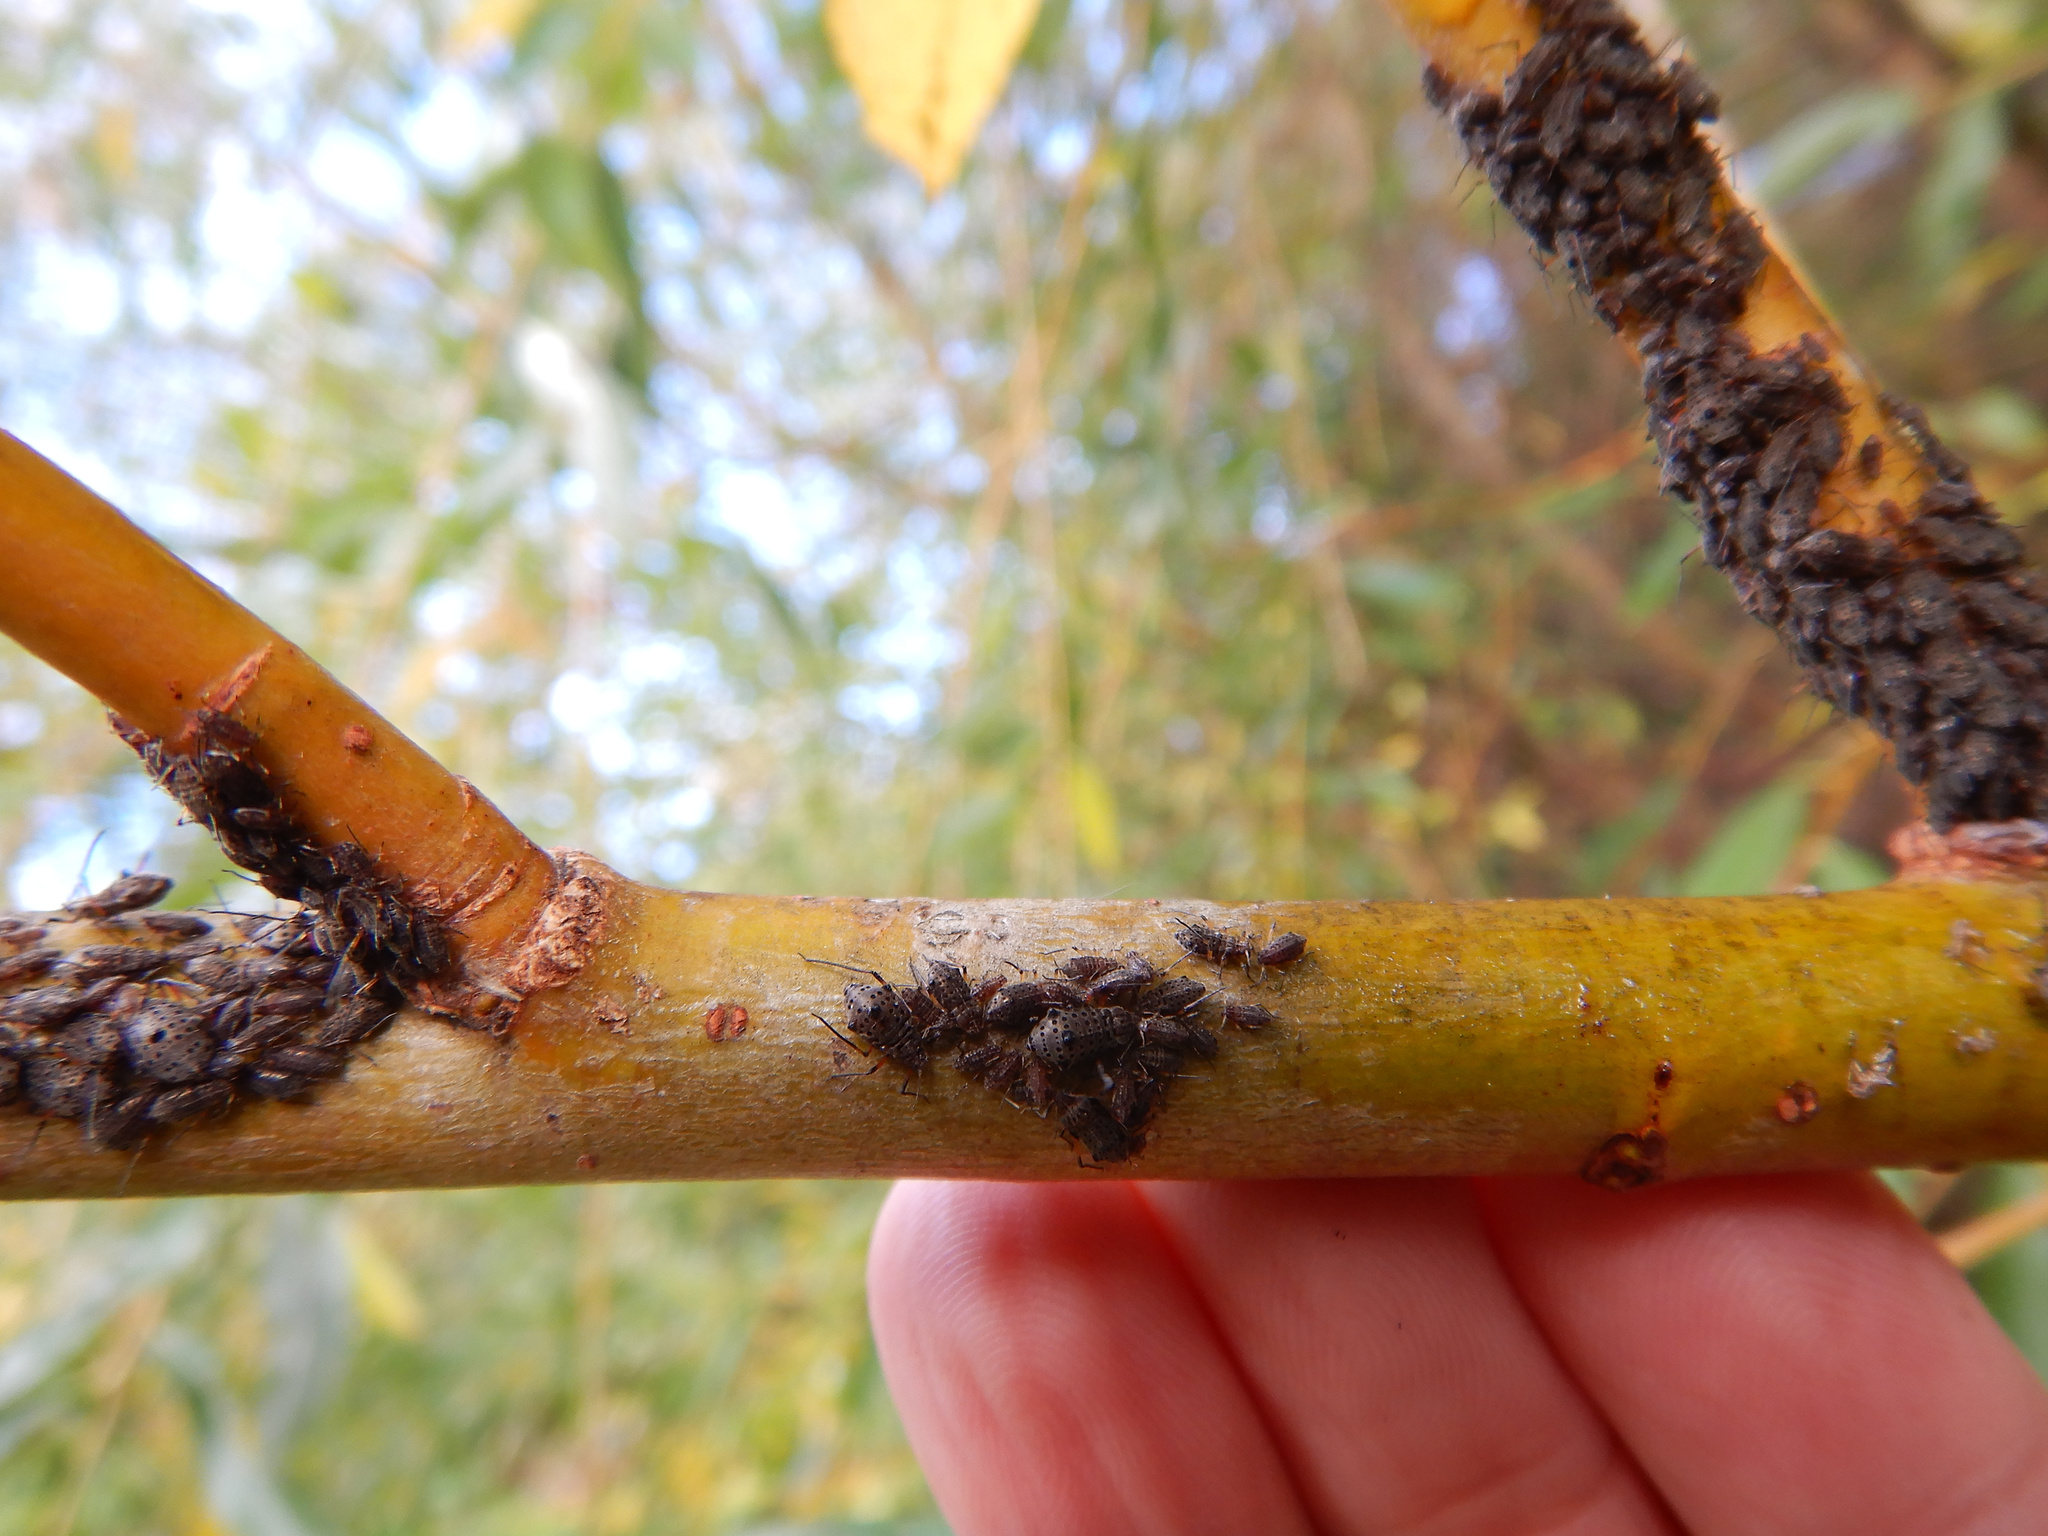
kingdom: Animalia
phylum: Arthropoda
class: Insecta
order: Hemiptera
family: Aphididae
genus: Tuberolachnus
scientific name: Tuberolachnus salignus
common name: Giant willow aphid
